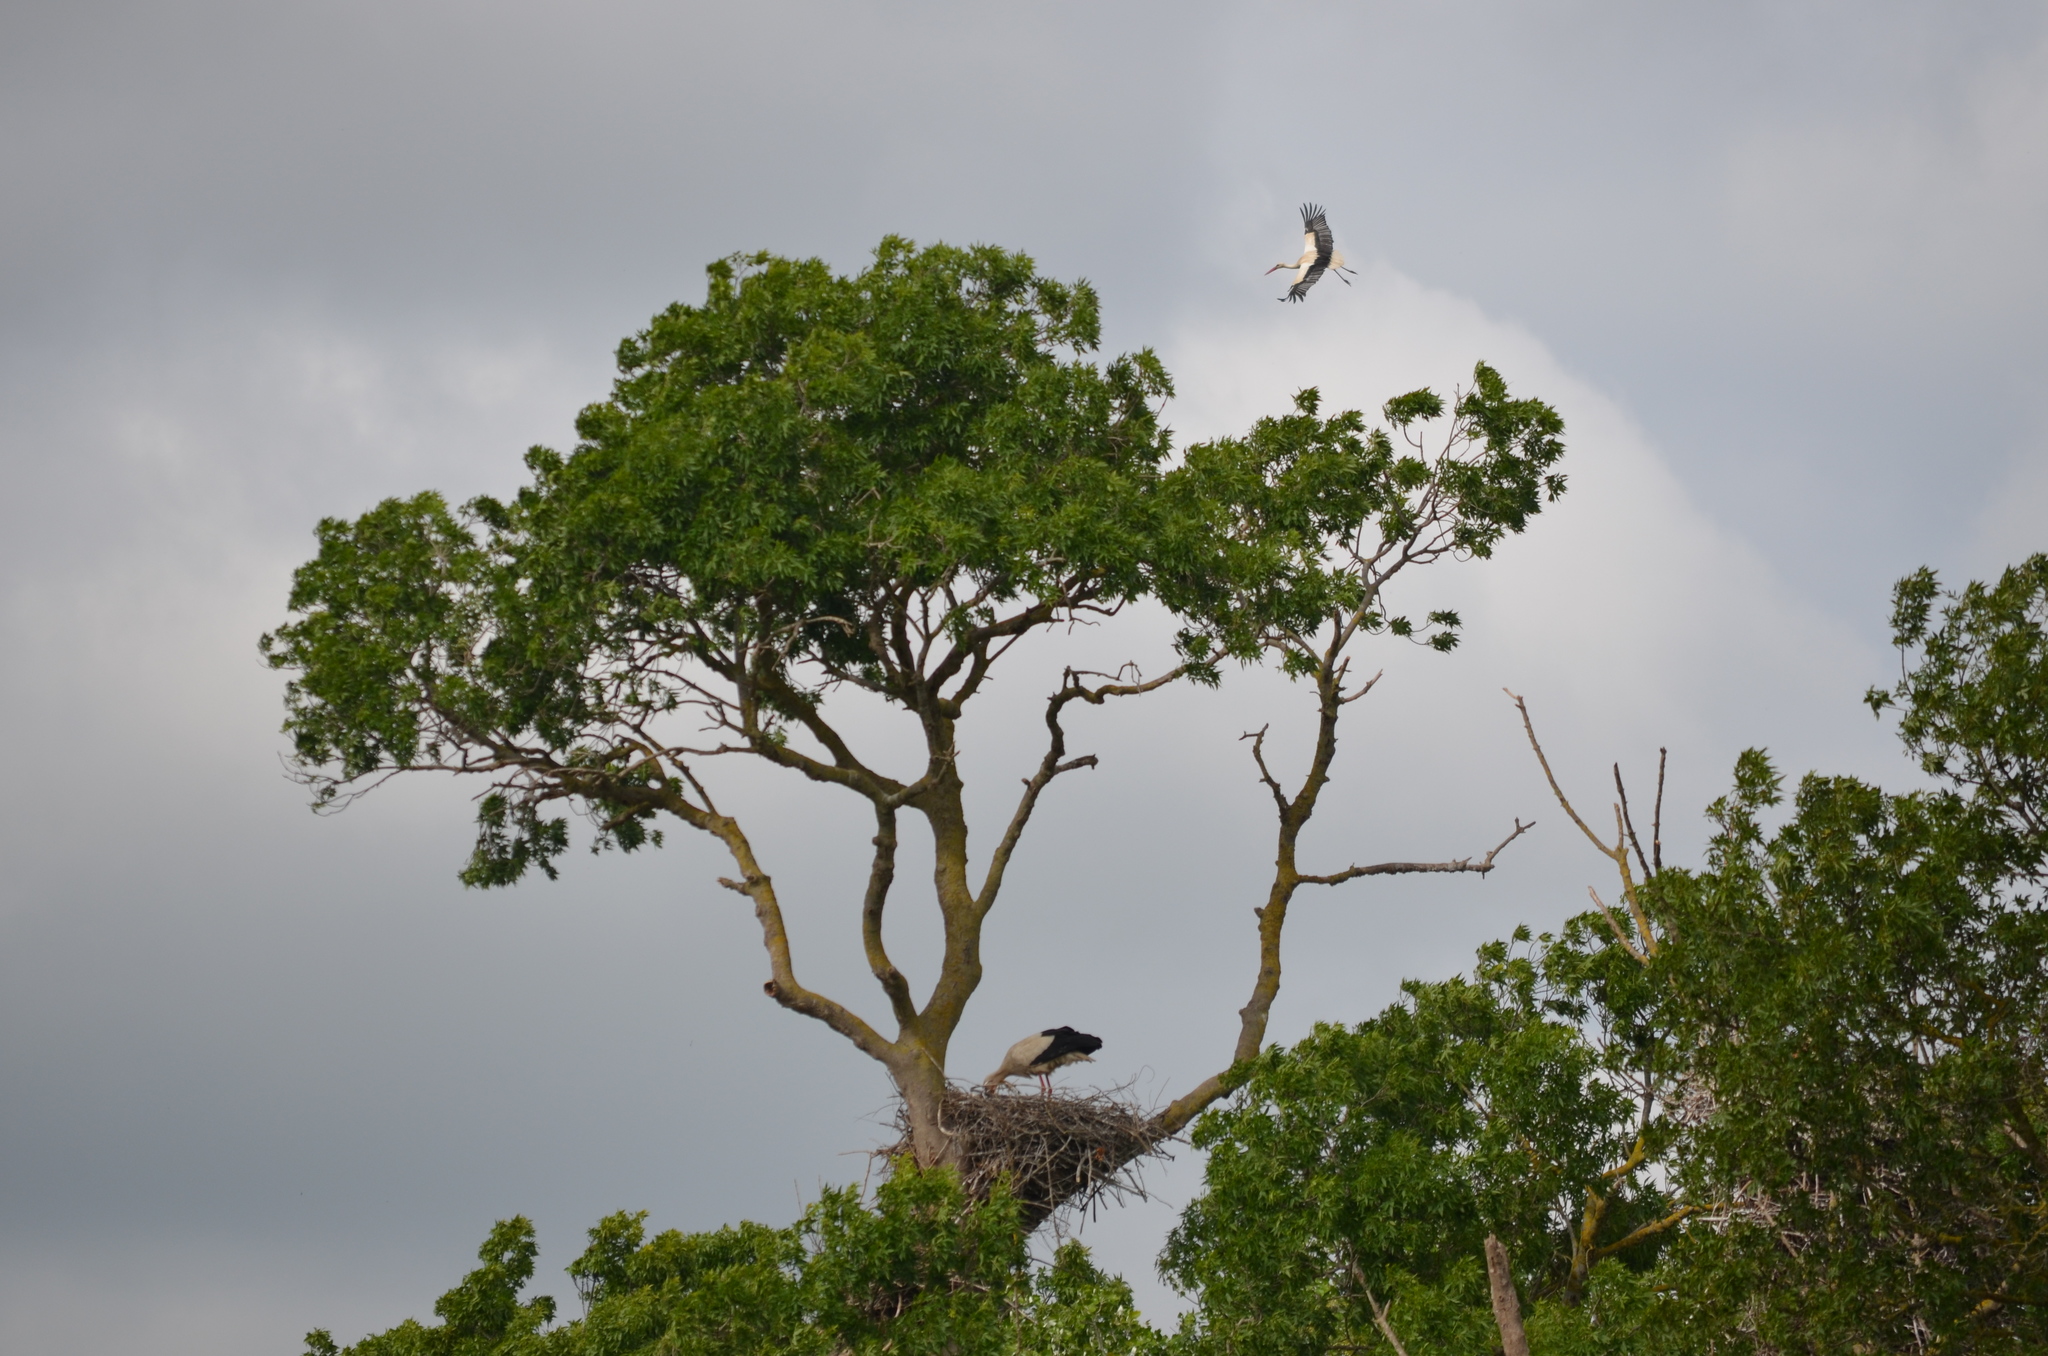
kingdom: Animalia
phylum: Chordata
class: Aves
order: Ciconiiformes
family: Ciconiidae
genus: Ciconia
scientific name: Ciconia ciconia
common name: White stork
